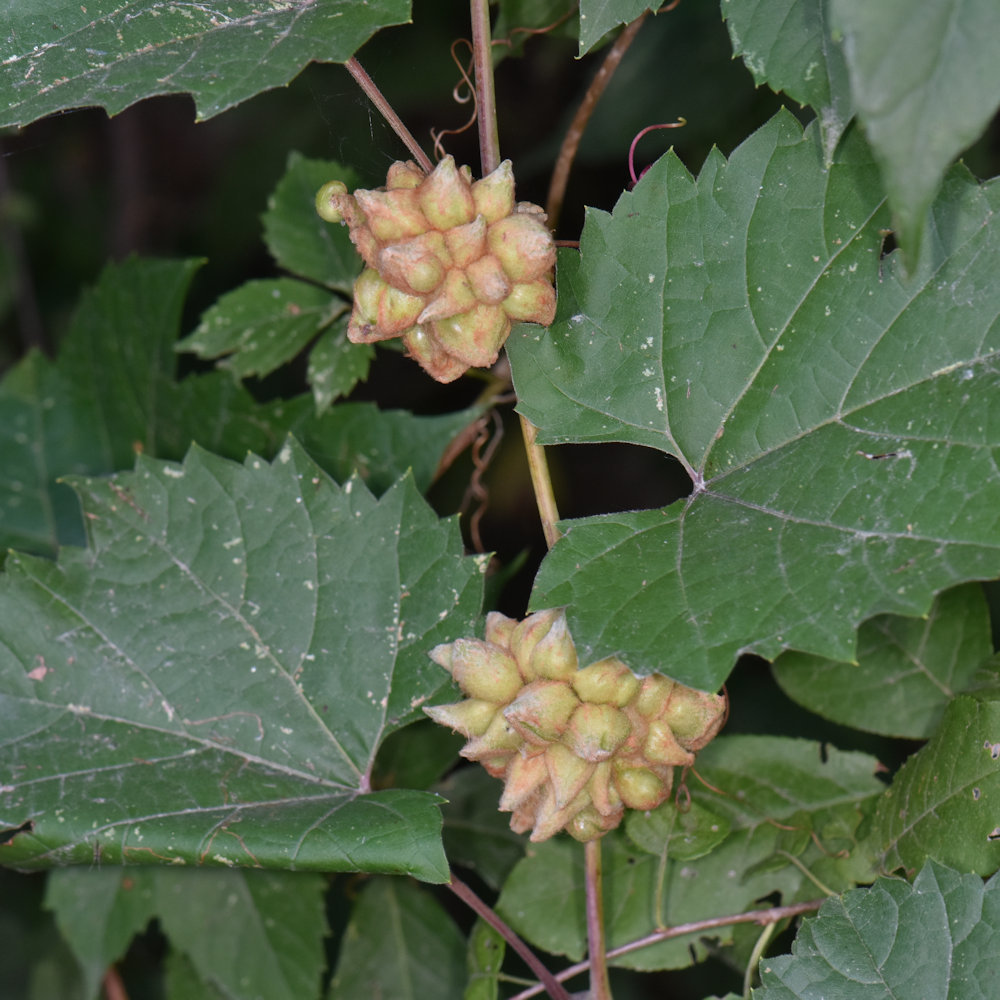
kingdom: Animalia
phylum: Arthropoda
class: Insecta
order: Diptera
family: Cecidomyiidae
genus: Ampelomyia
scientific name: Ampelomyia vitiscoryloides
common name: Grape filbert gall
